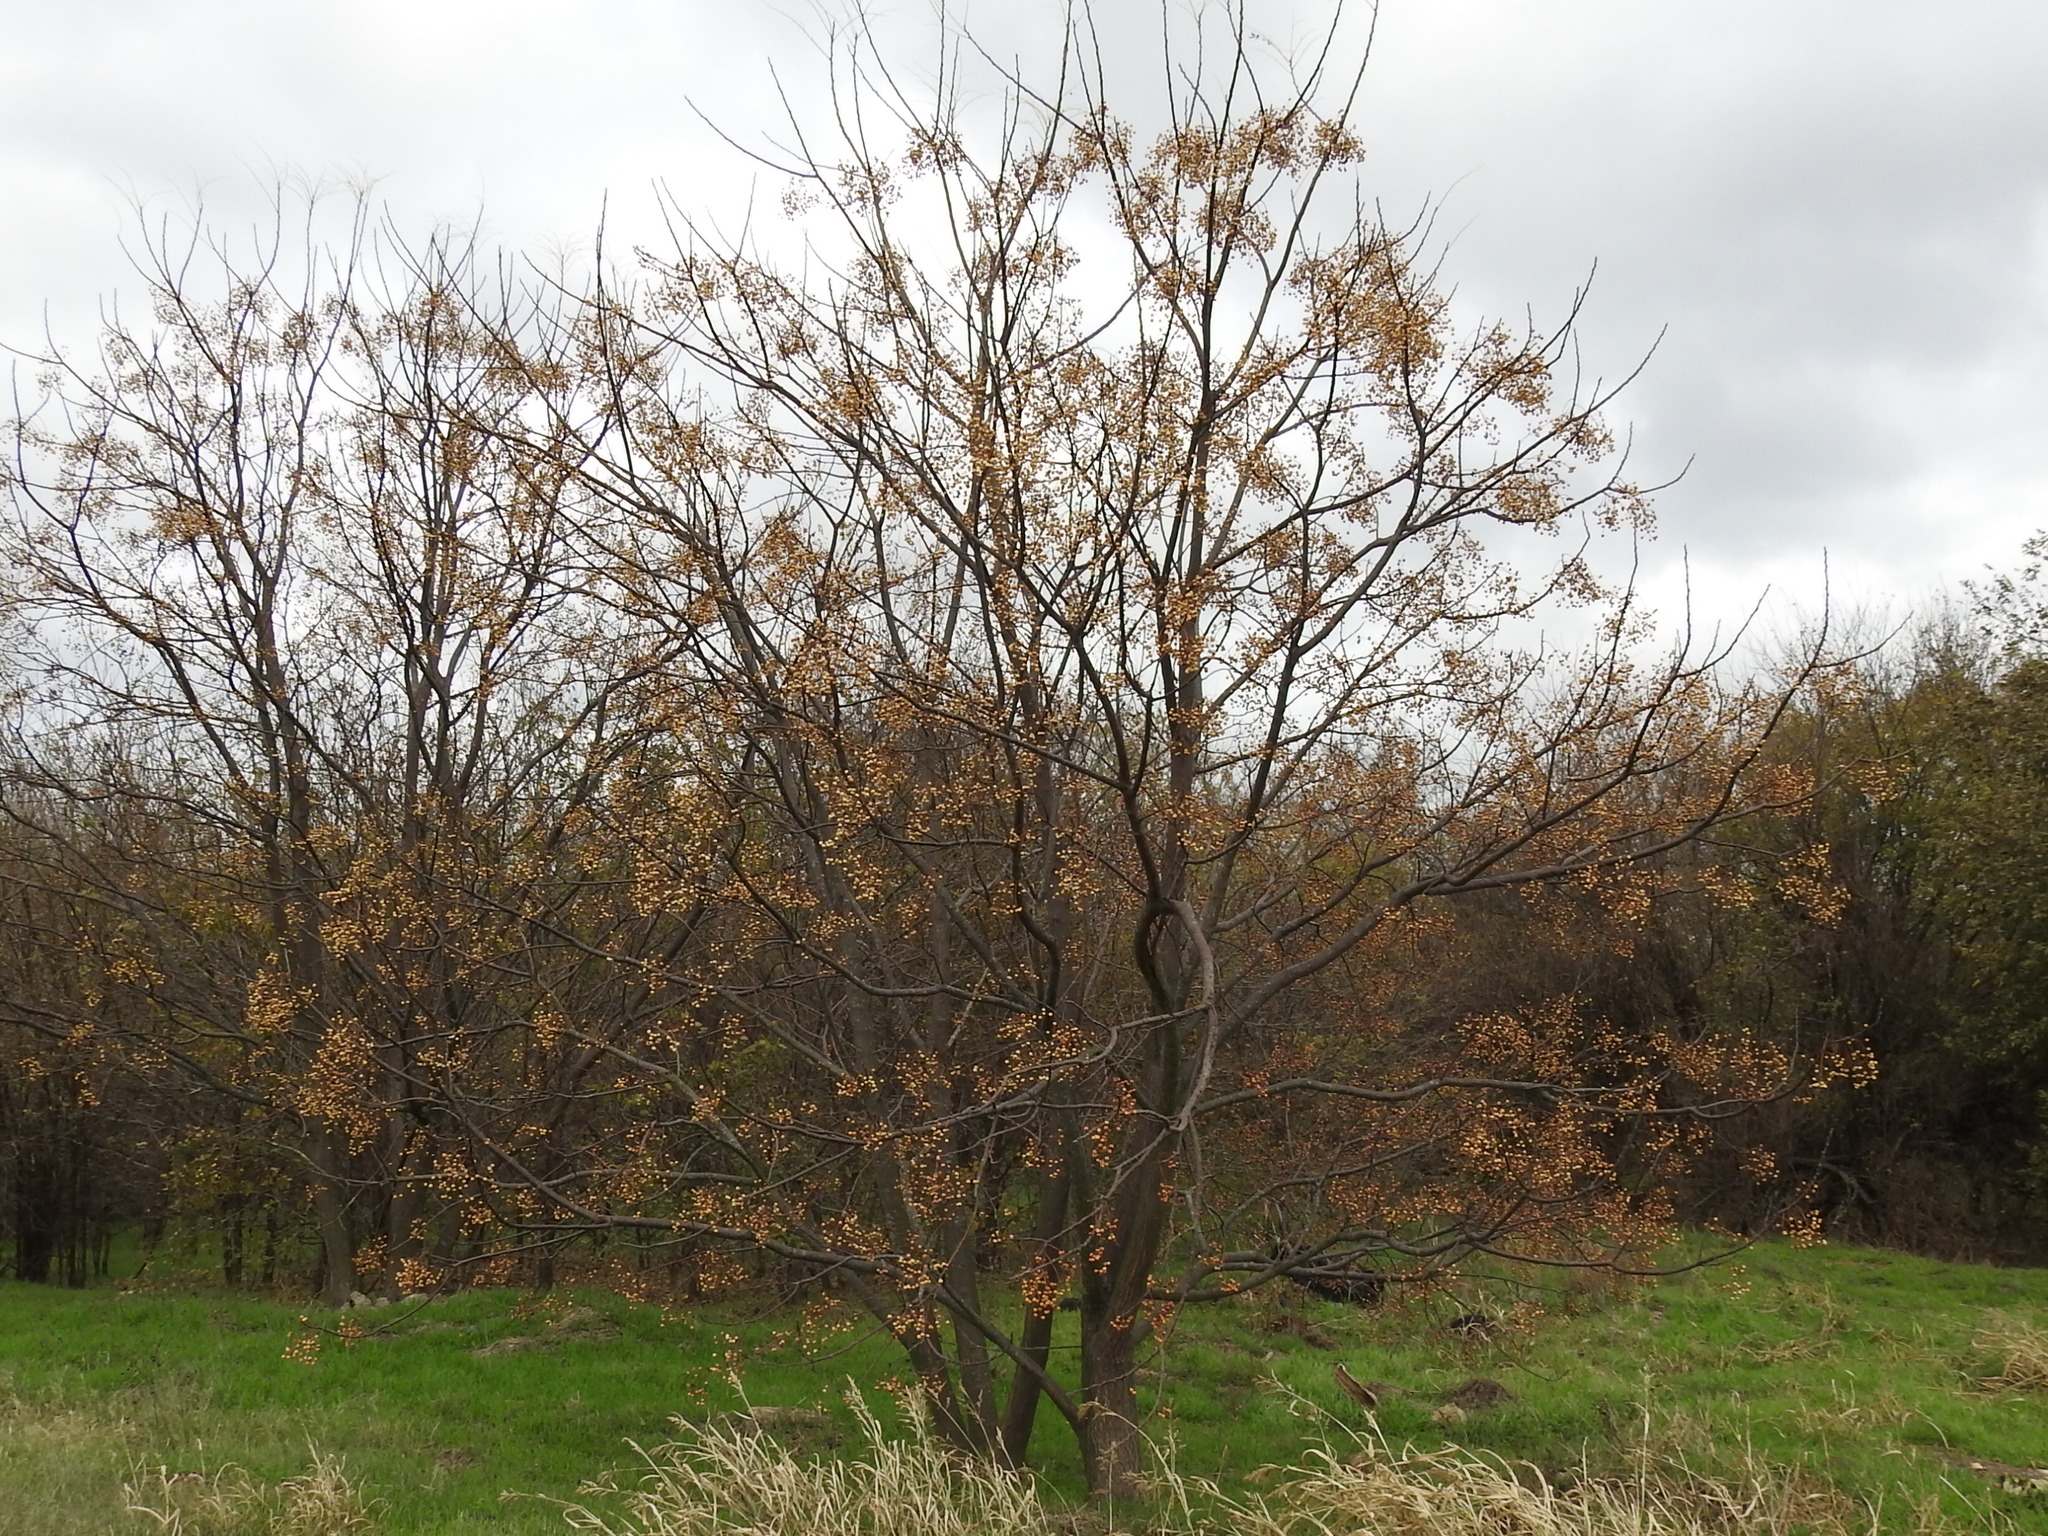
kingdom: Plantae
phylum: Tracheophyta
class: Magnoliopsida
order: Sapindales
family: Meliaceae
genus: Melia
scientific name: Melia azedarach
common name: Chinaberrytree
